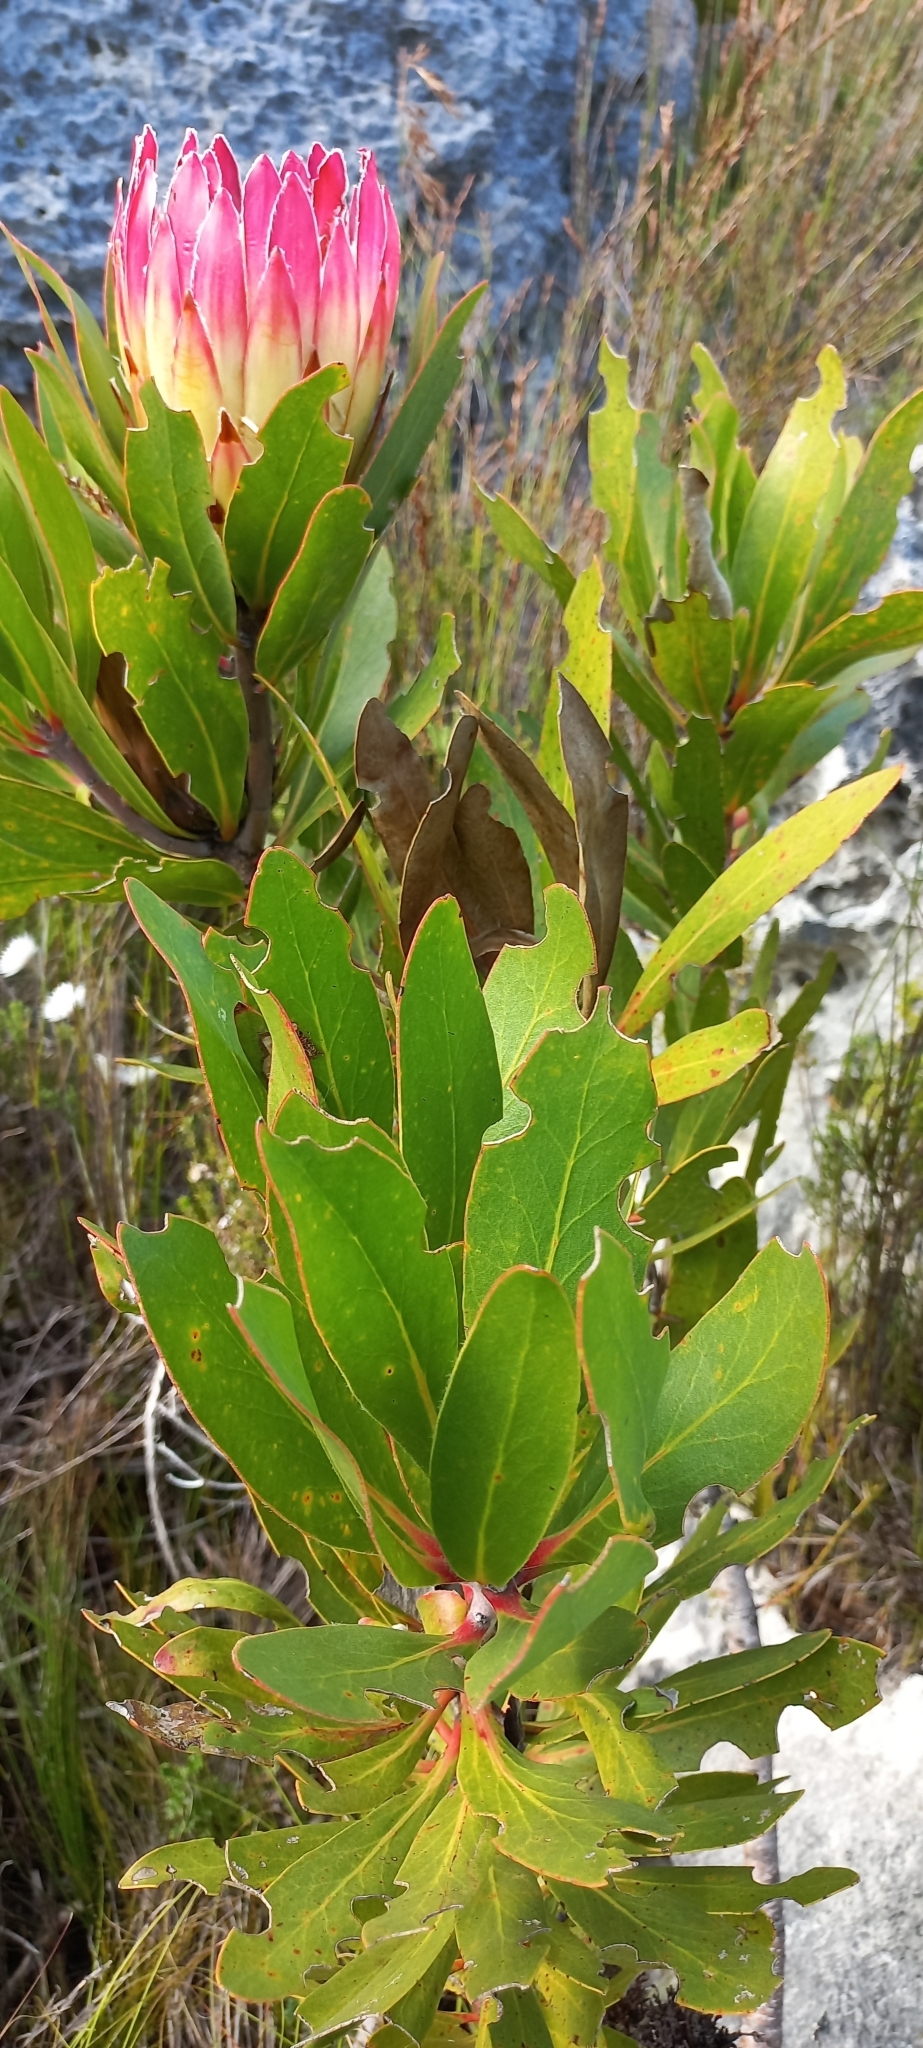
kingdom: Plantae
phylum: Tracheophyta
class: Magnoliopsida
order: Proteales
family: Proteaceae
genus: Protea
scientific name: Protea obtusifolia
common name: Bredasdorp sugarbush
